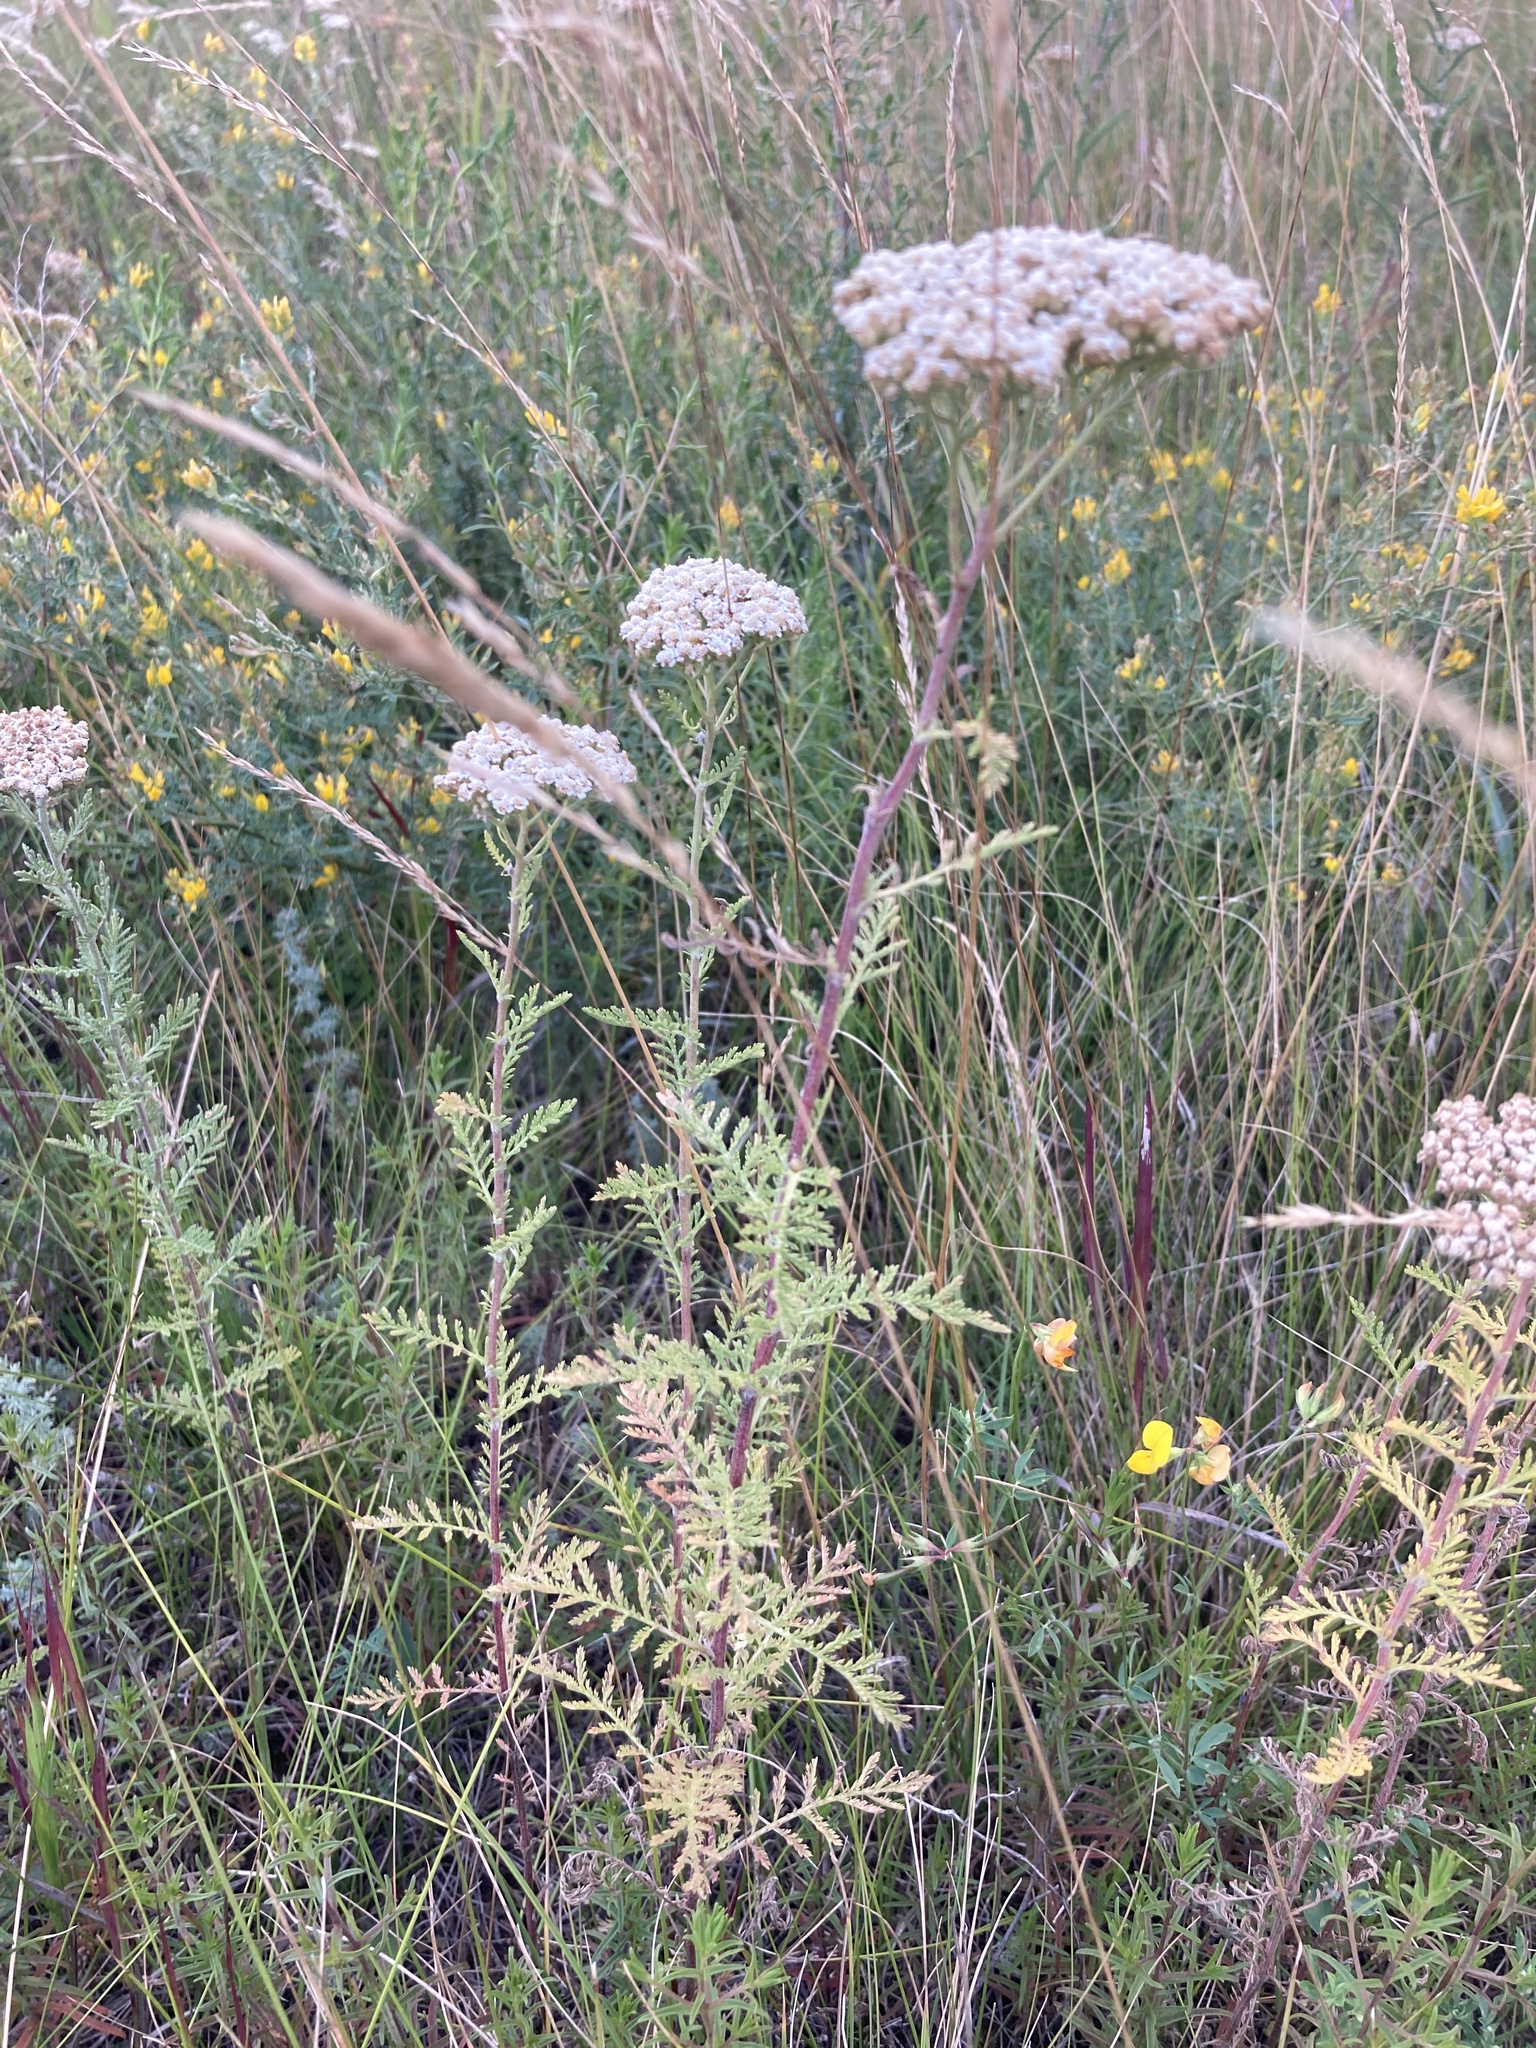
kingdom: Plantae
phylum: Tracheophyta
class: Magnoliopsida
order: Asterales
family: Asteraceae
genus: Achillea
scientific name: Achillea nobilis
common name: Noble yarrow
